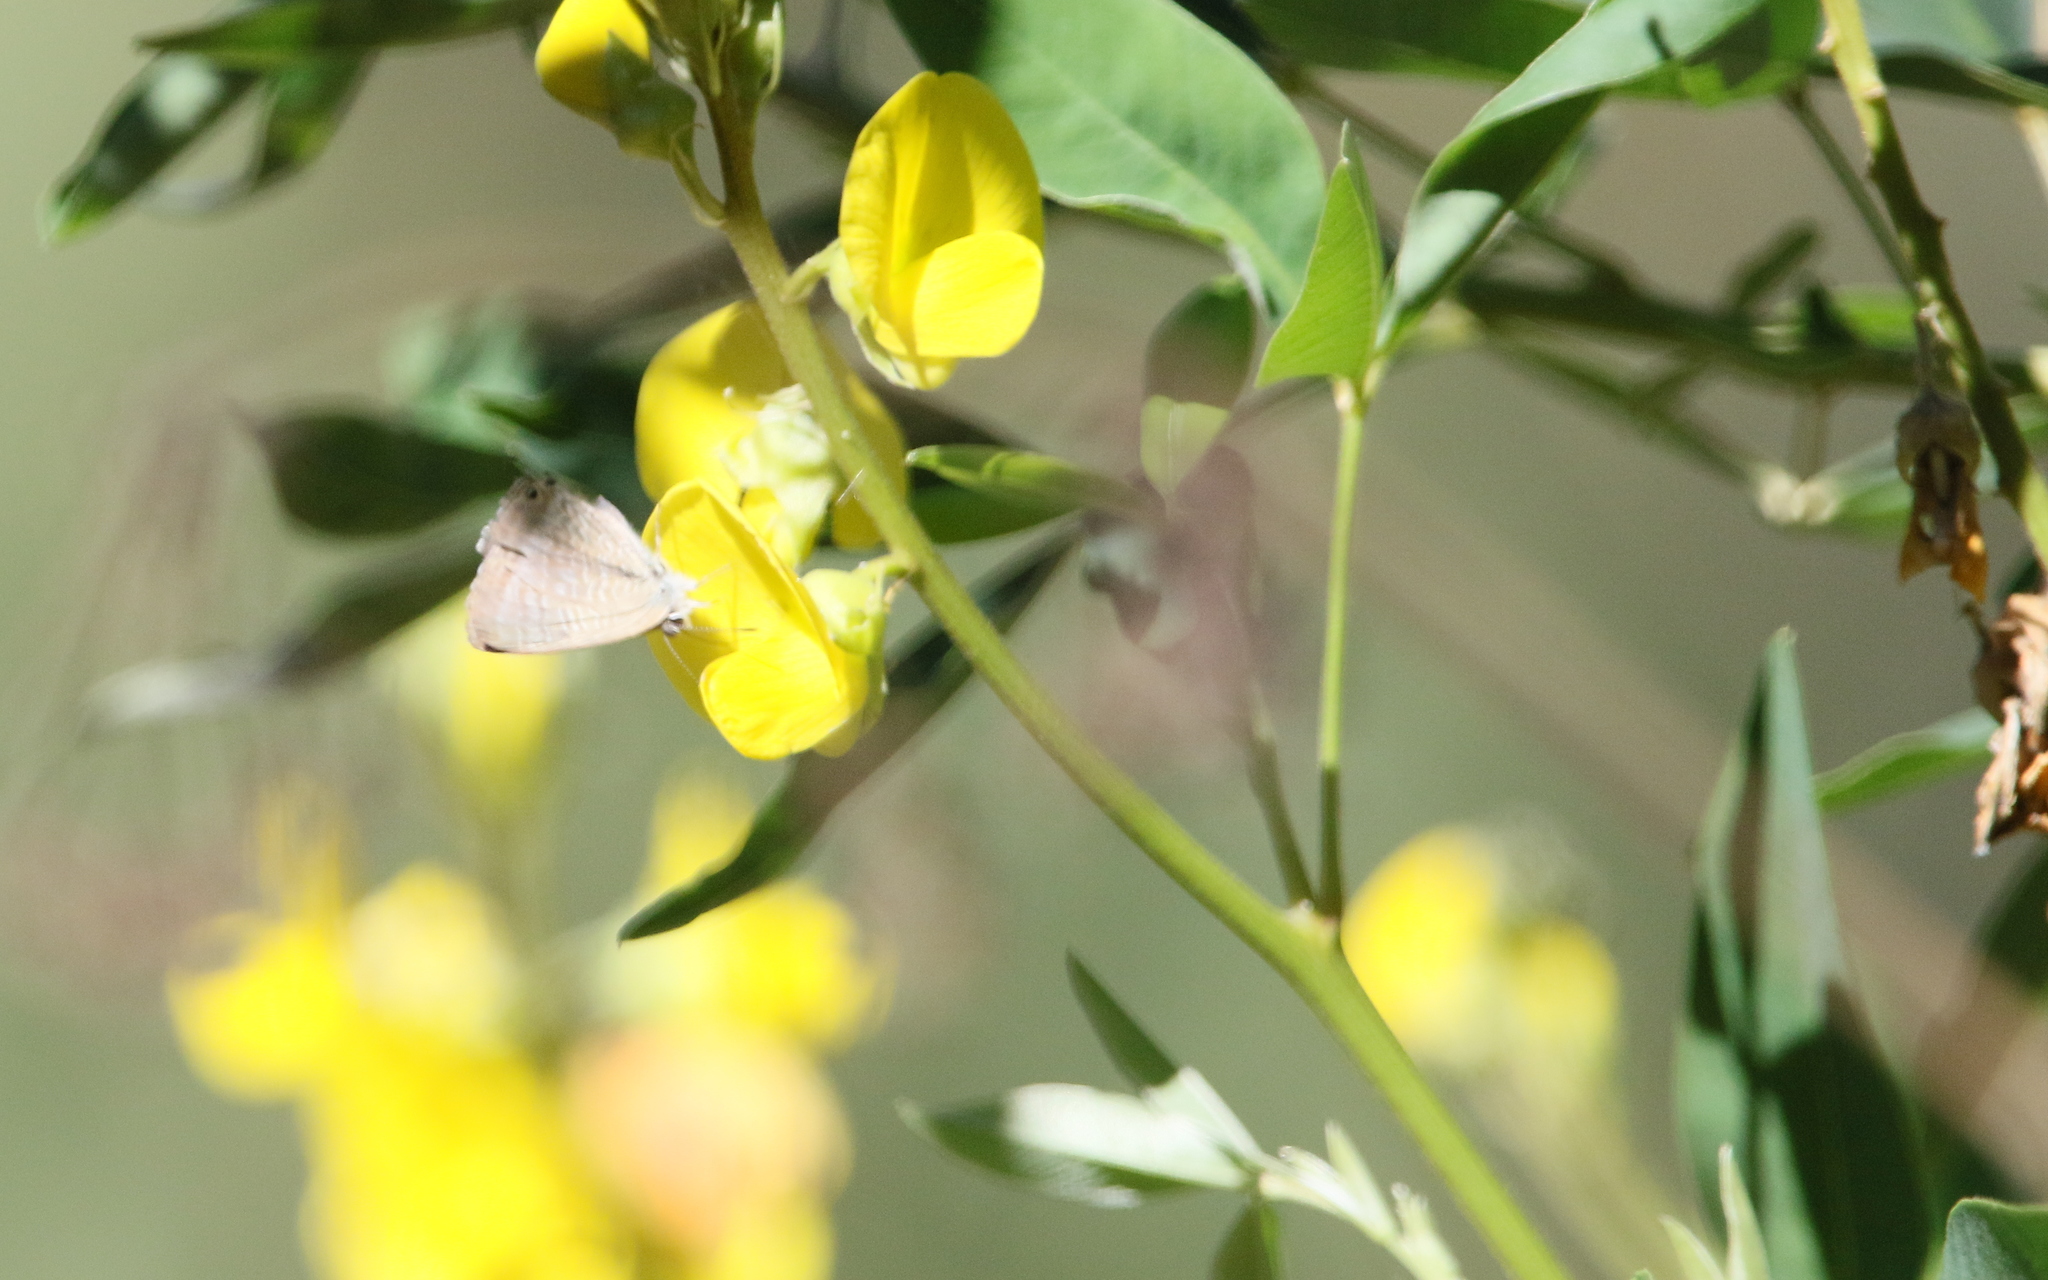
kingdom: Animalia
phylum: Arthropoda
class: Insecta
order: Lepidoptera
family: Lycaenidae
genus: Lampides
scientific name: Lampides boeticus
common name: Long-tailed blue
